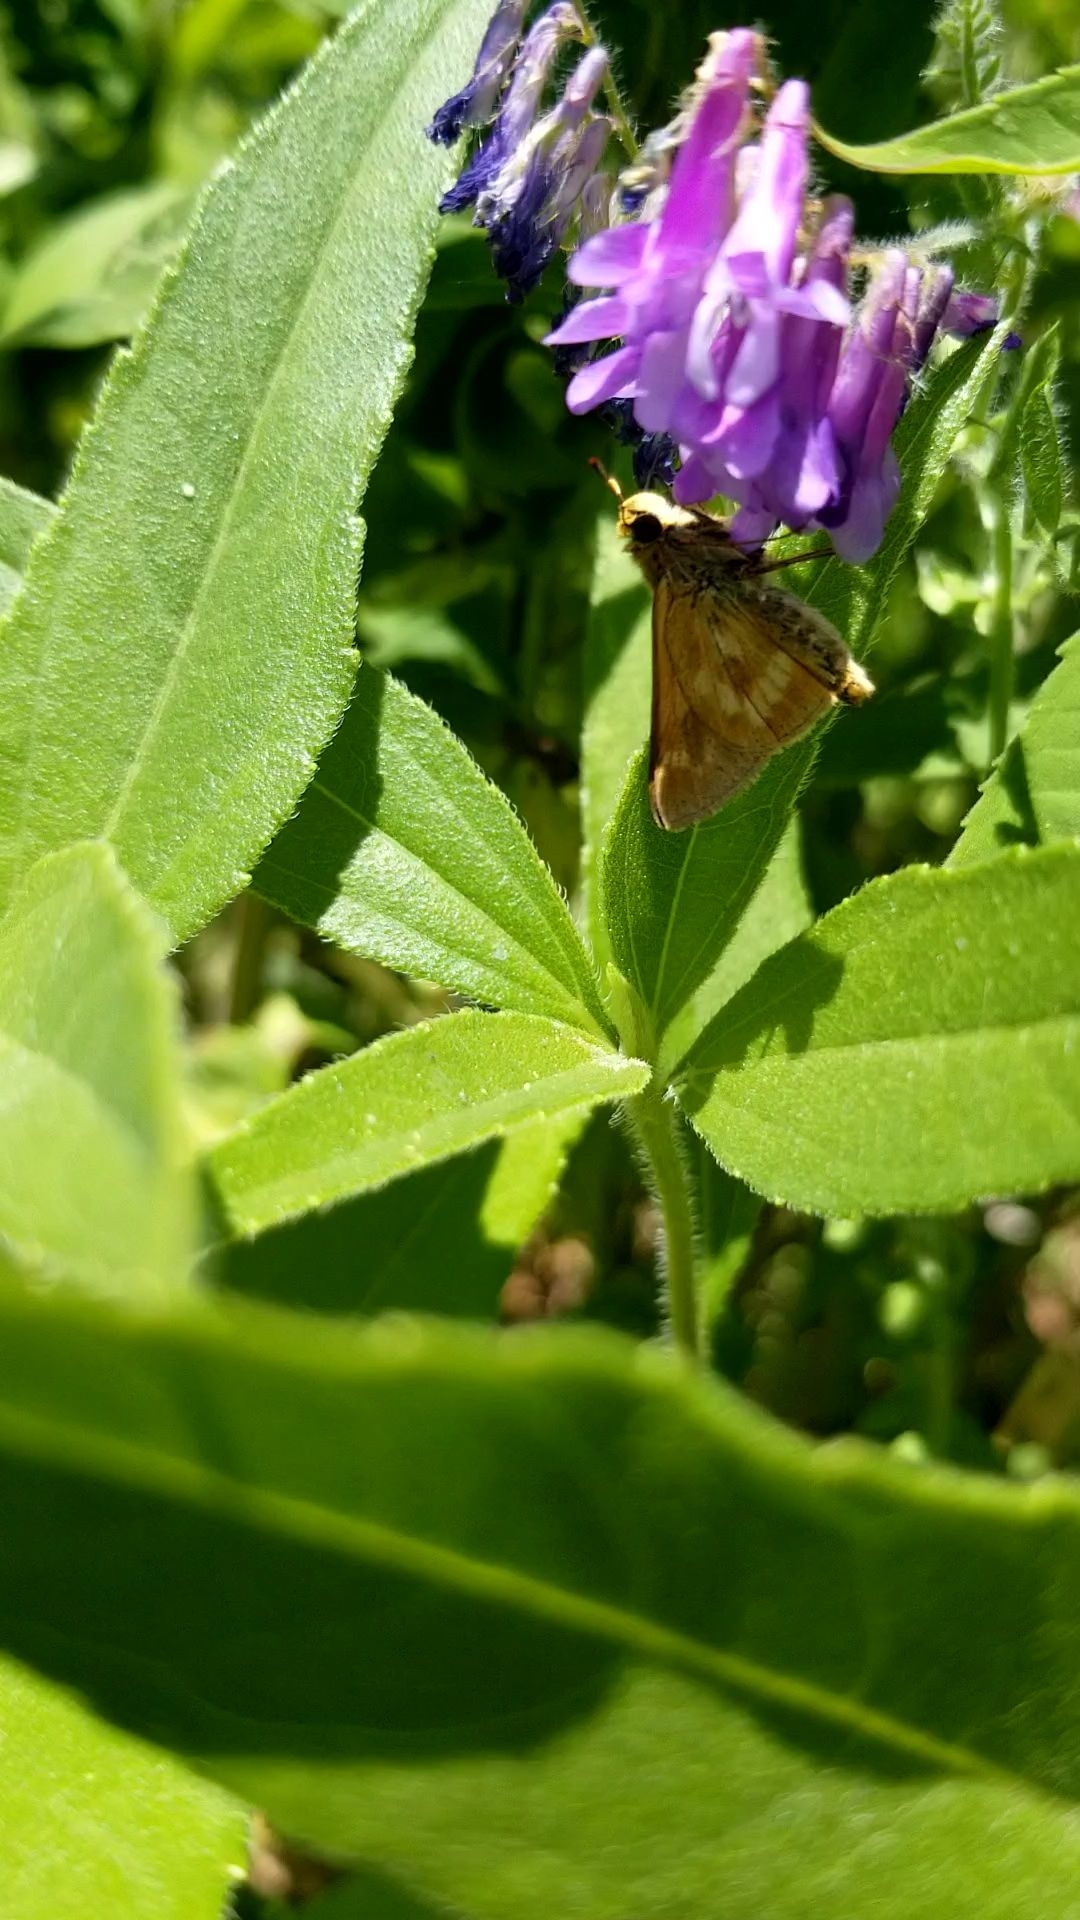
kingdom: Animalia
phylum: Arthropoda
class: Insecta
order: Lepidoptera
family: Hesperiidae
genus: Polites
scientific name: Polites mystic
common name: Long dash
